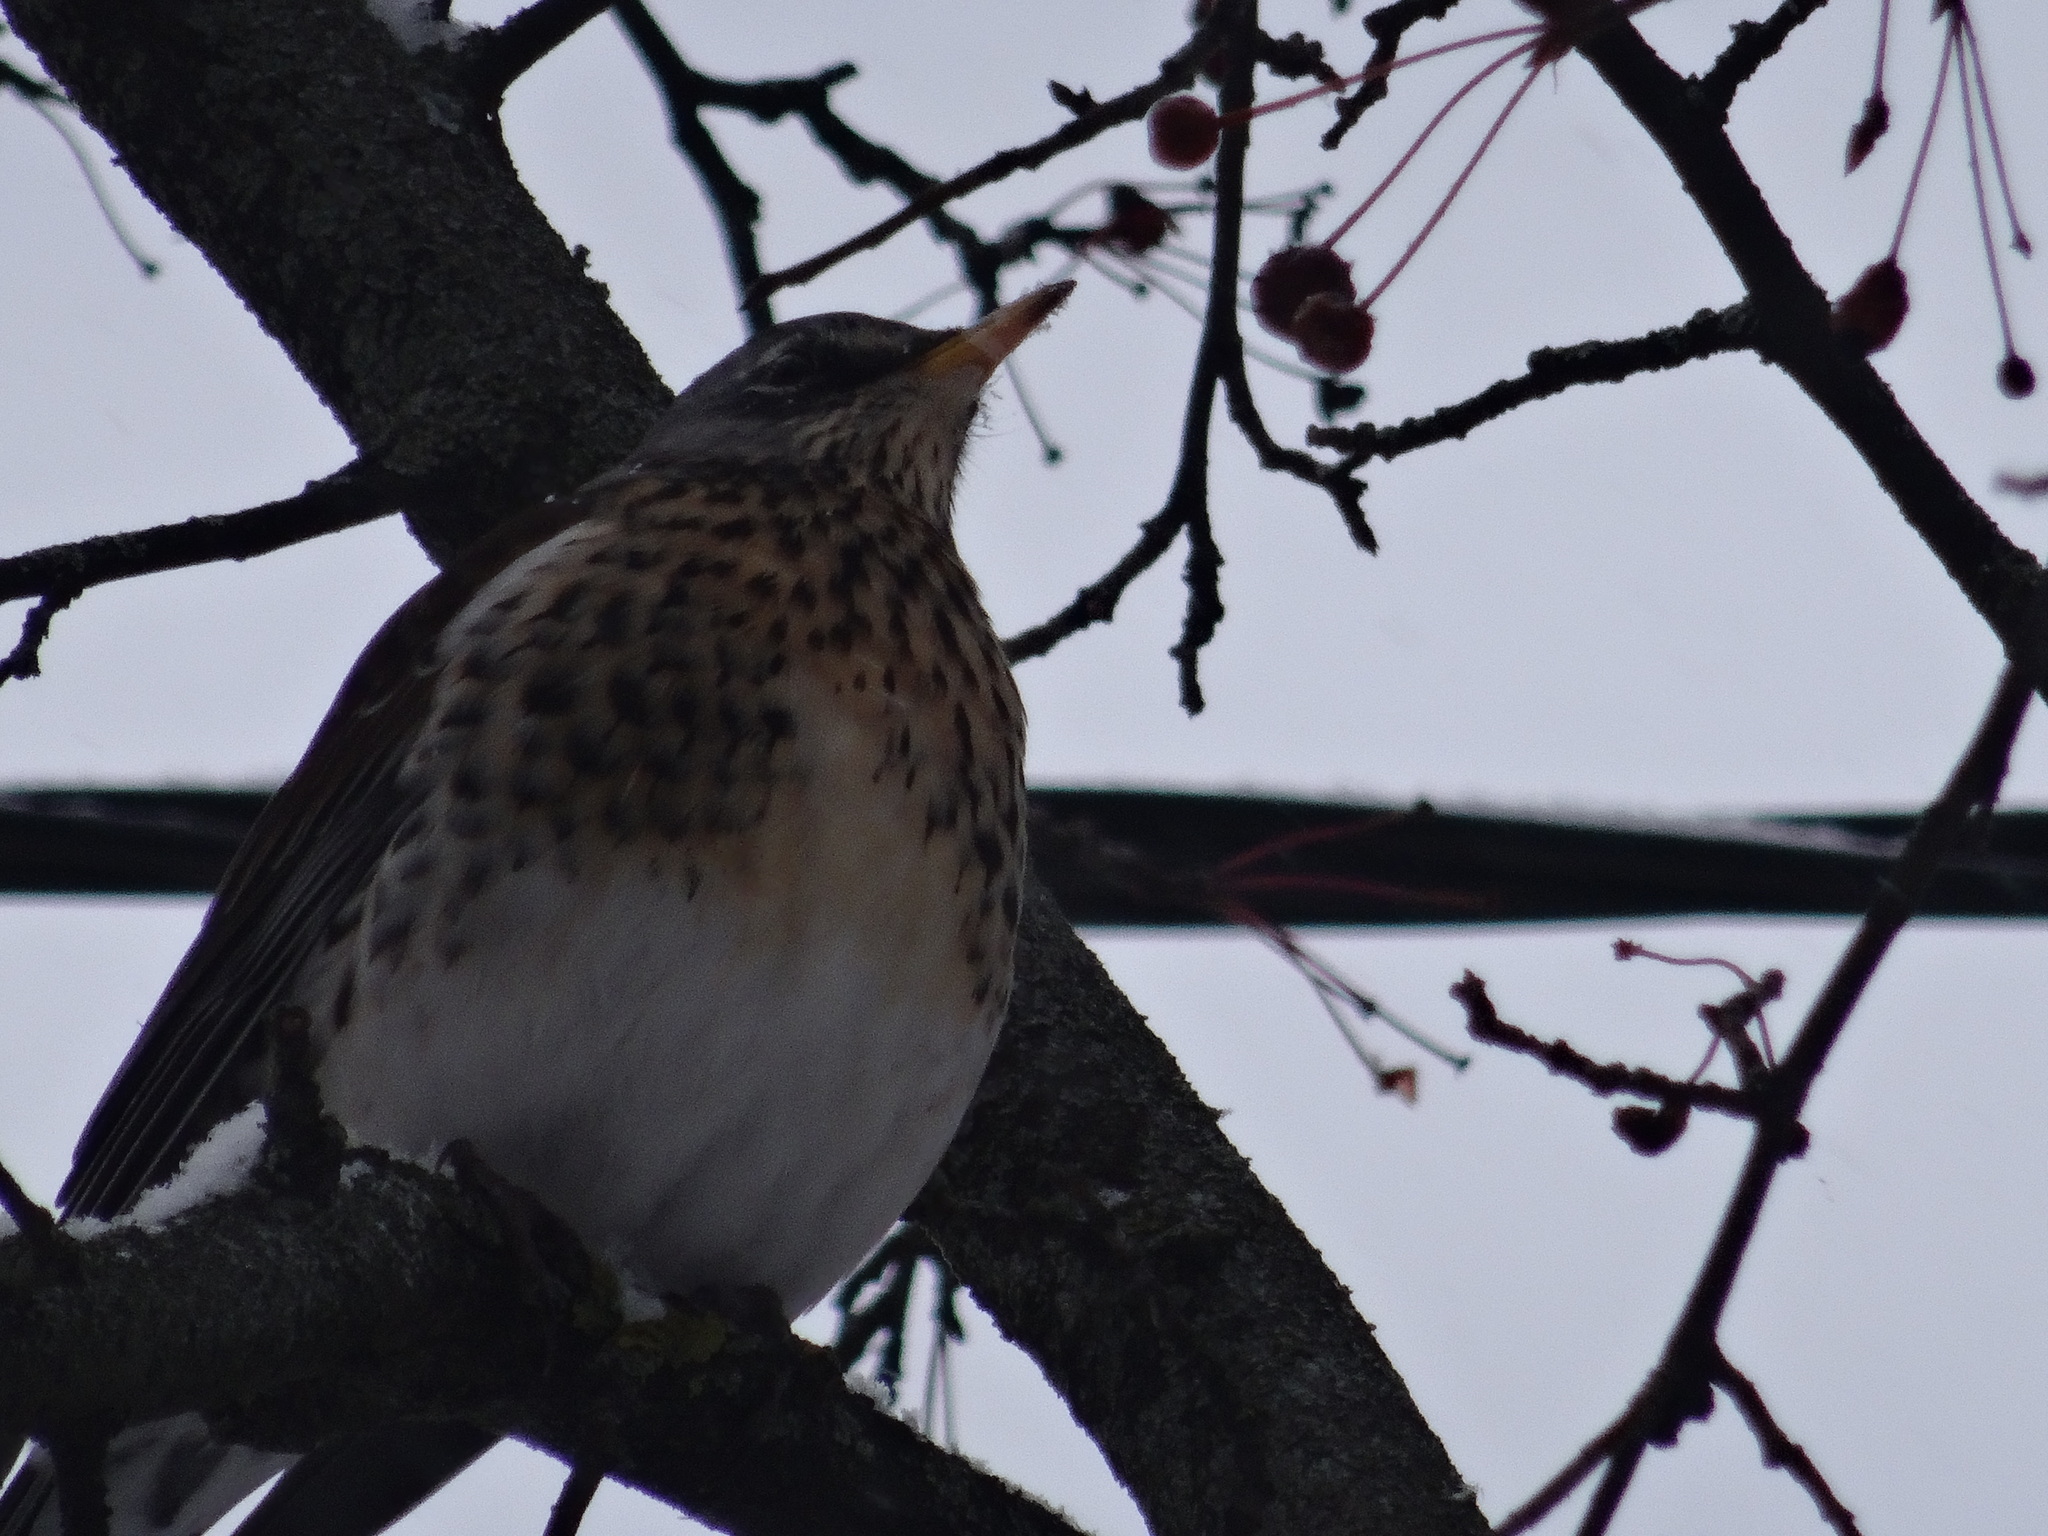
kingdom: Animalia
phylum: Chordata
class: Aves
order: Passeriformes
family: Turdidae
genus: Turdus
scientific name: Turdus pilaris
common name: Fieldfare
